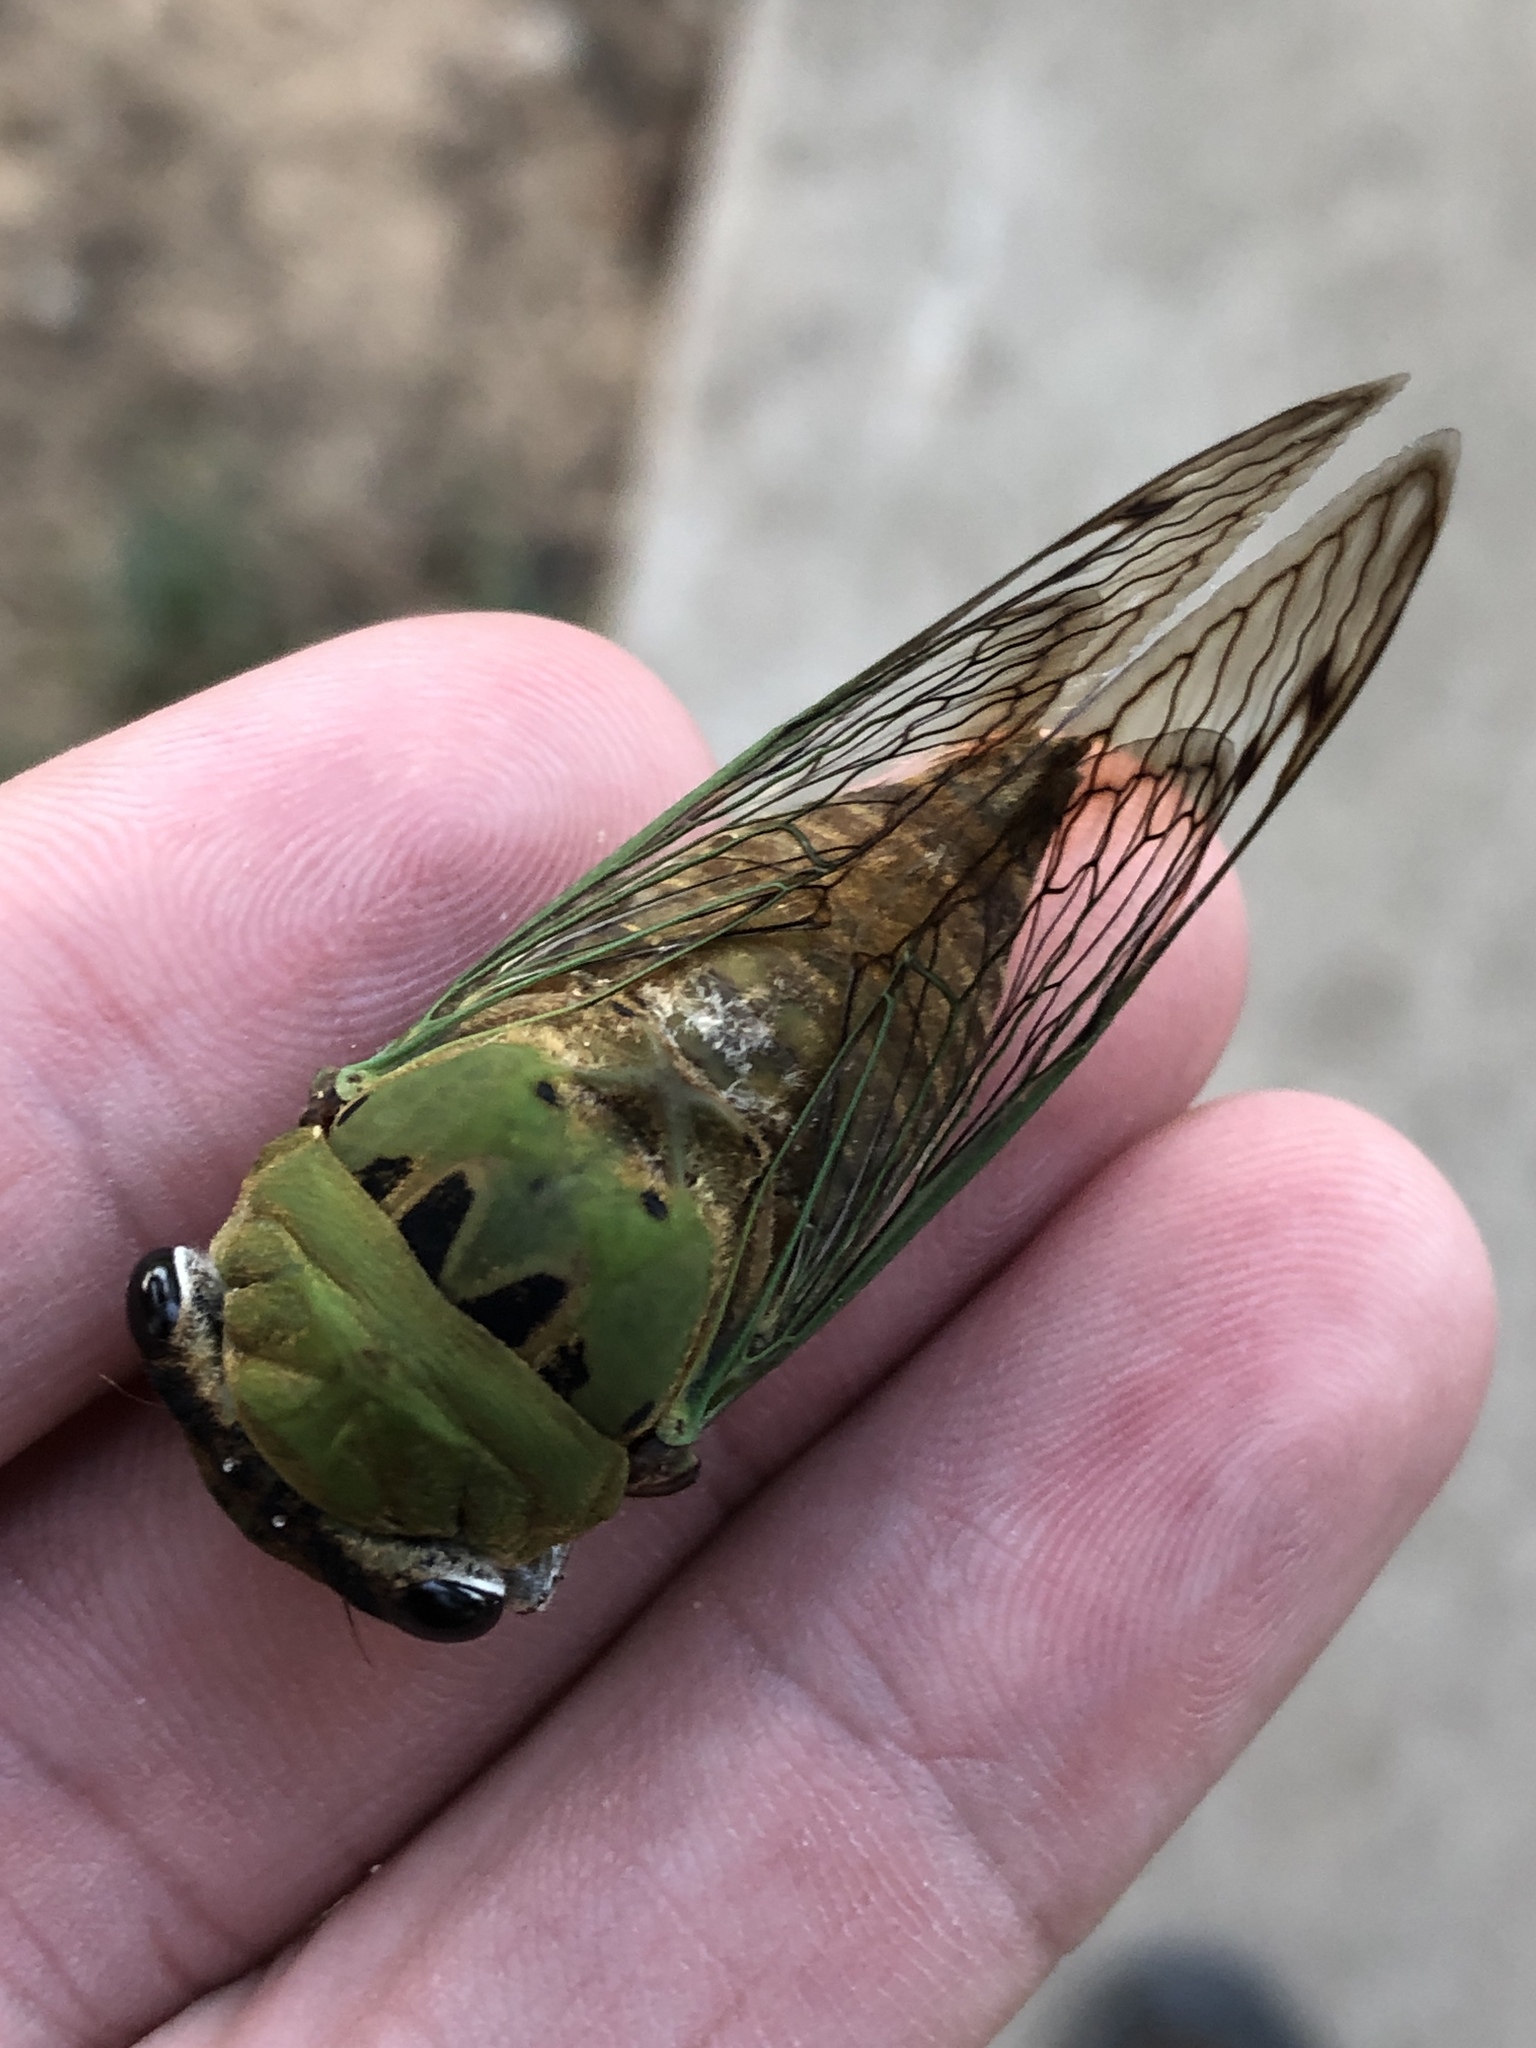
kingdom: Animalia
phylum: Arthropoda
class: Insecta
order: Hemiptera
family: Cicadidae
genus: Neotibicen
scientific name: Neotibicen superbus
